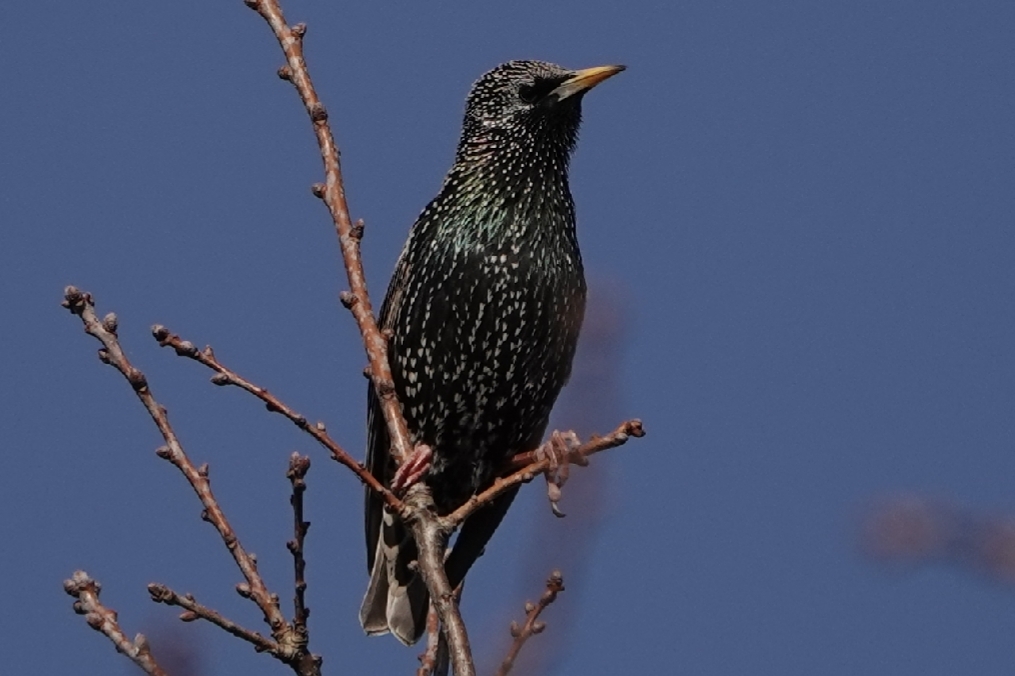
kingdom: Animalia
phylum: Chordata
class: Aves
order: Passeriformes
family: Sturnidae
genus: Sturnus
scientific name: Sturnus vulgaris
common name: Common starling
